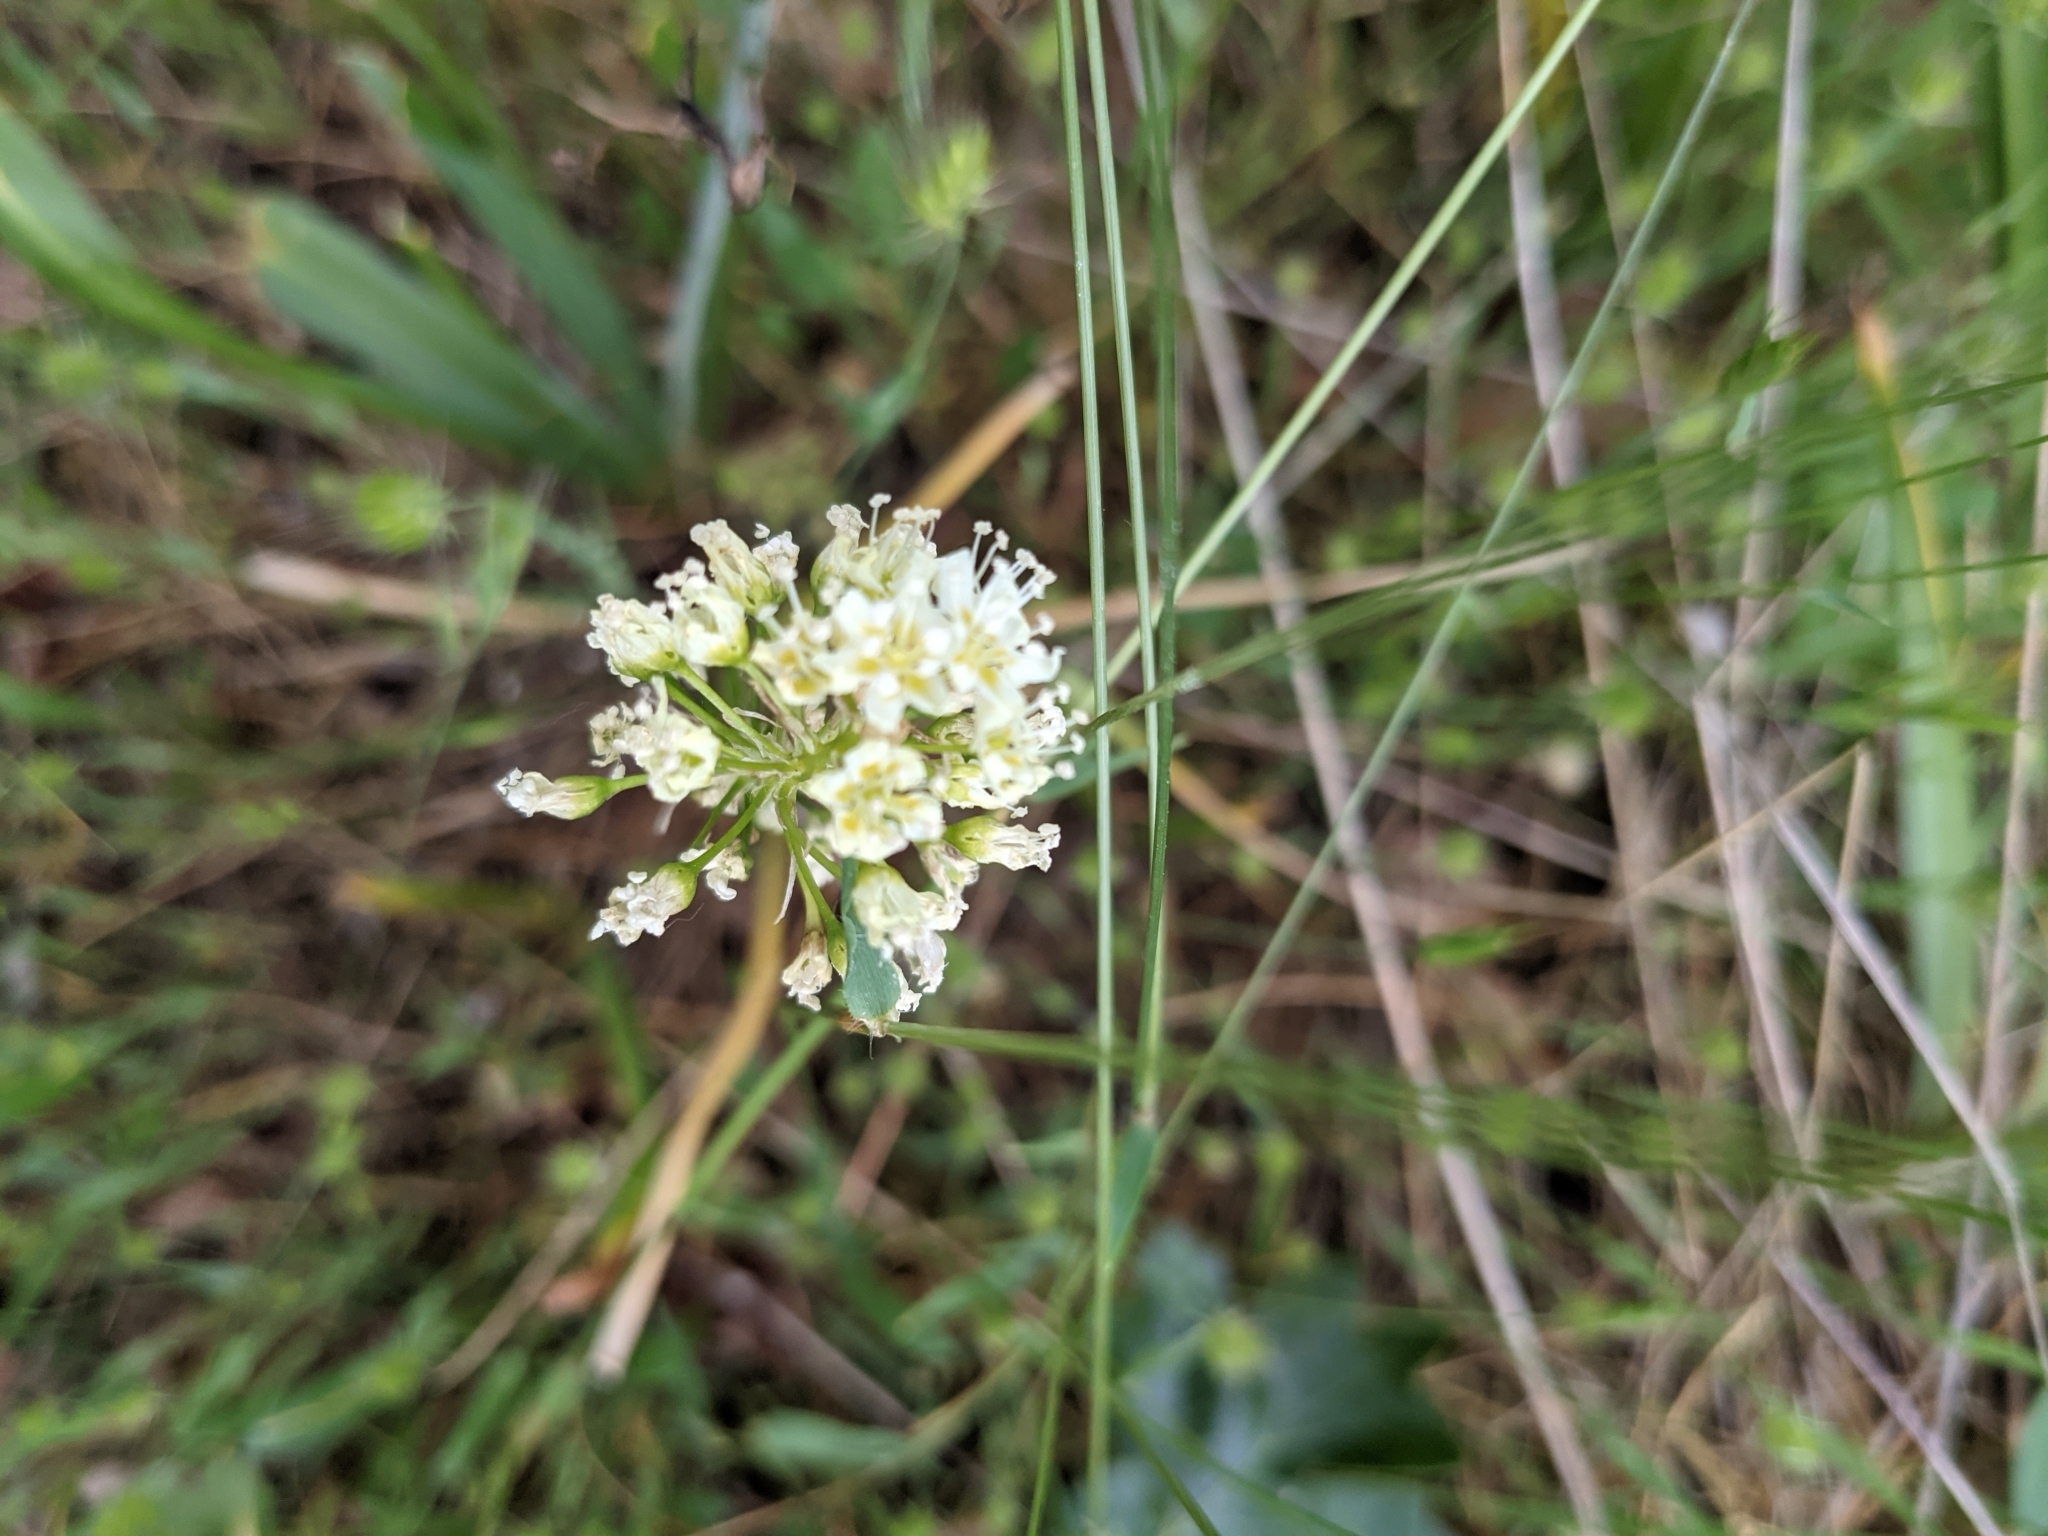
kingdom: Plantae
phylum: Tracheophyta
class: Liliopsida
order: Liliales
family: Melanthiaceae
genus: Toxicoscordion
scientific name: Toxicoscordion venenosum
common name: Meadow death camas
